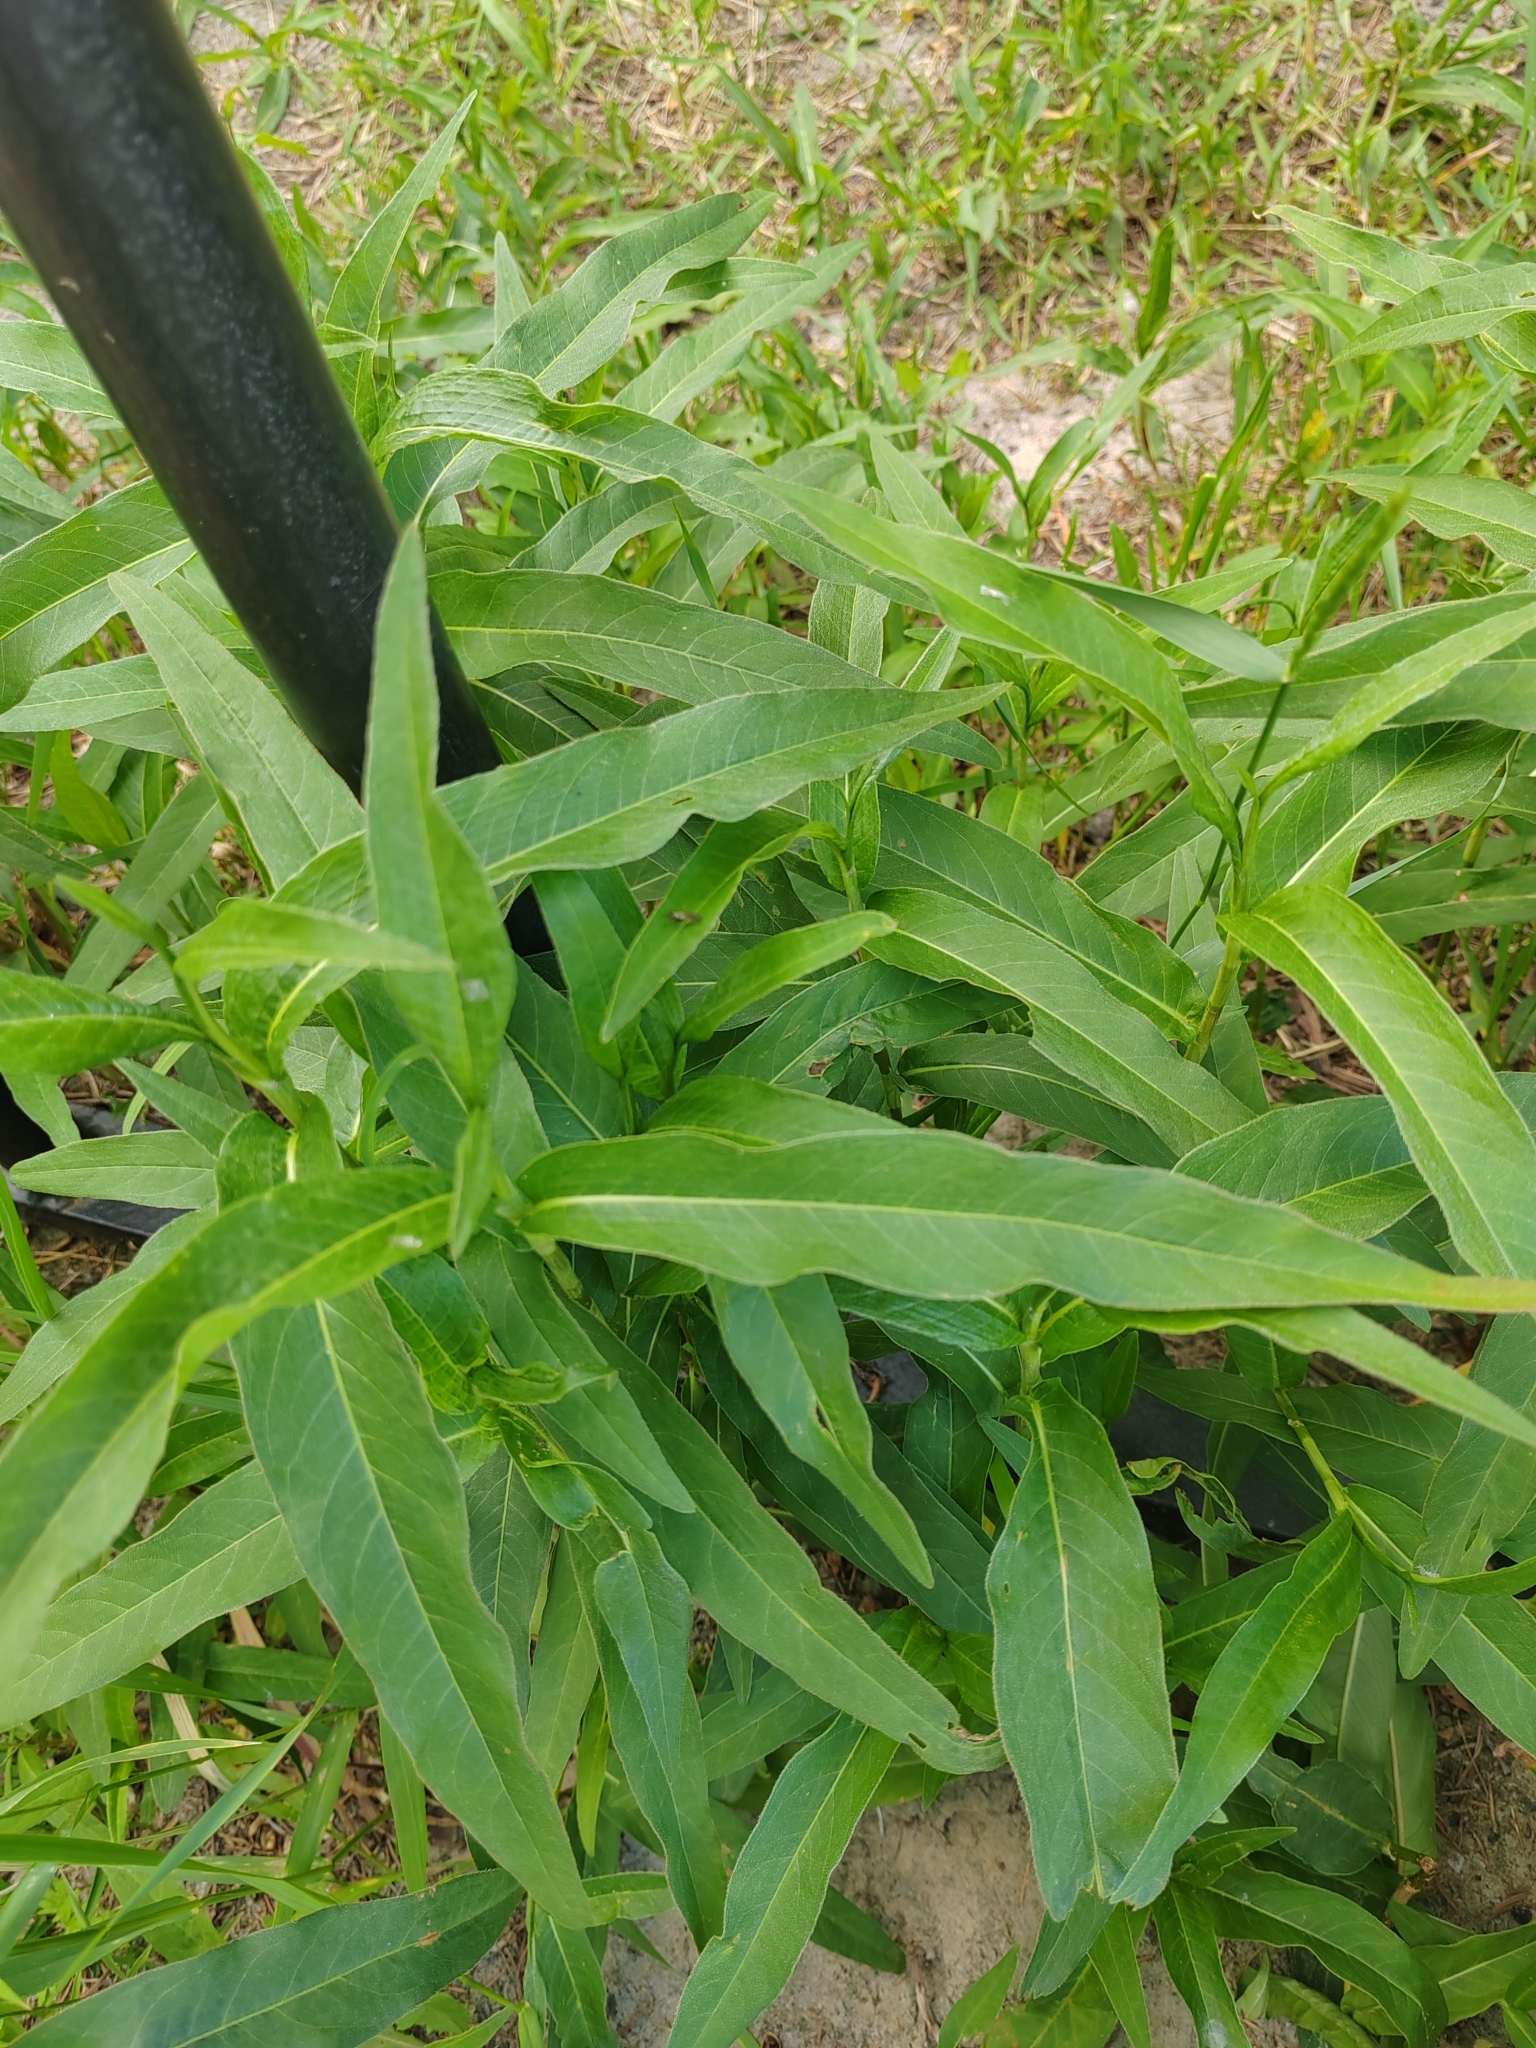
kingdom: Plantae
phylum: Tracheophyta
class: Magnoliopsida
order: Caryophyllales
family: Polygonaceae
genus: Persicaria
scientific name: Persicaria amphibia
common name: Amphibious bistort
